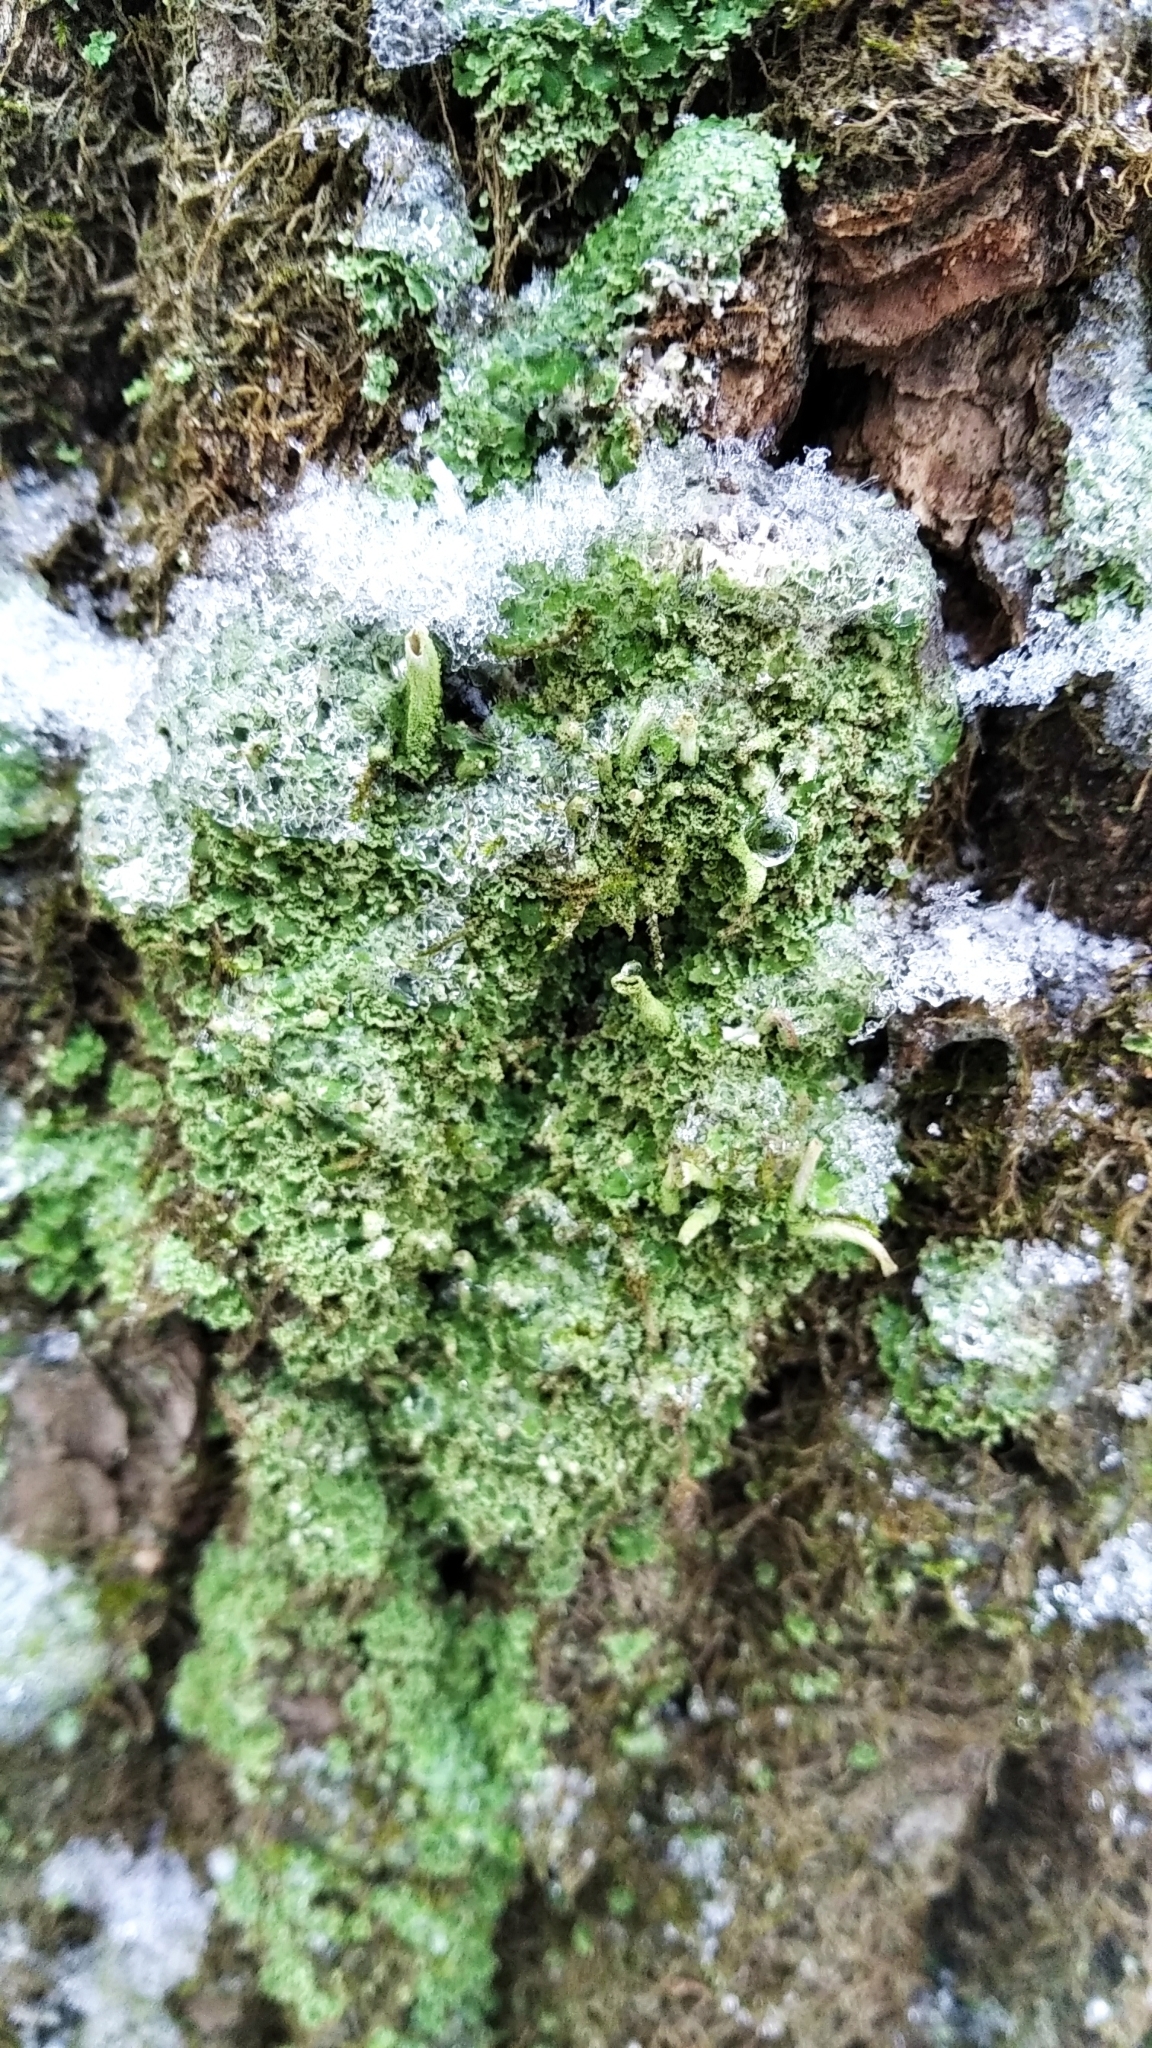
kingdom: Fungi
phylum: Ascomycota
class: Lecanoromycetes
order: Lecanorales
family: Cladoniaceae
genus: Cladonia
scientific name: Cladonia coniocraea
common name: Common powderhorn
